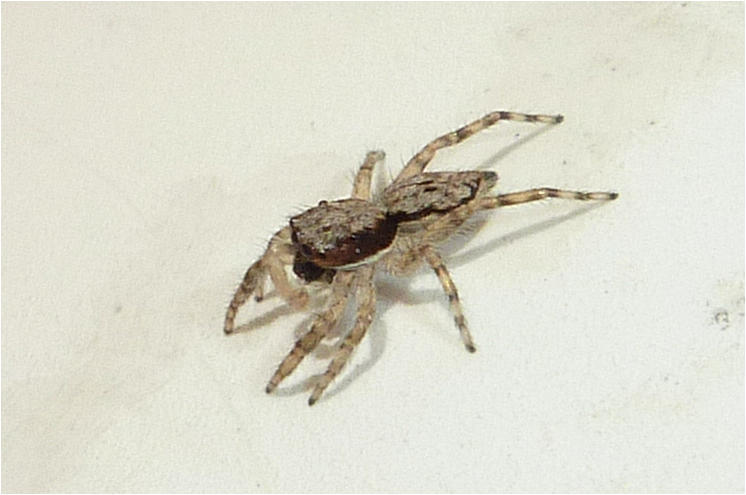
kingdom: Animalia
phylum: Arthropoda
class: Arachnida
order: Araneae
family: Salticidae
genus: Menemerus
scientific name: Menemerus bivittatus
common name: Gray wall jumper
